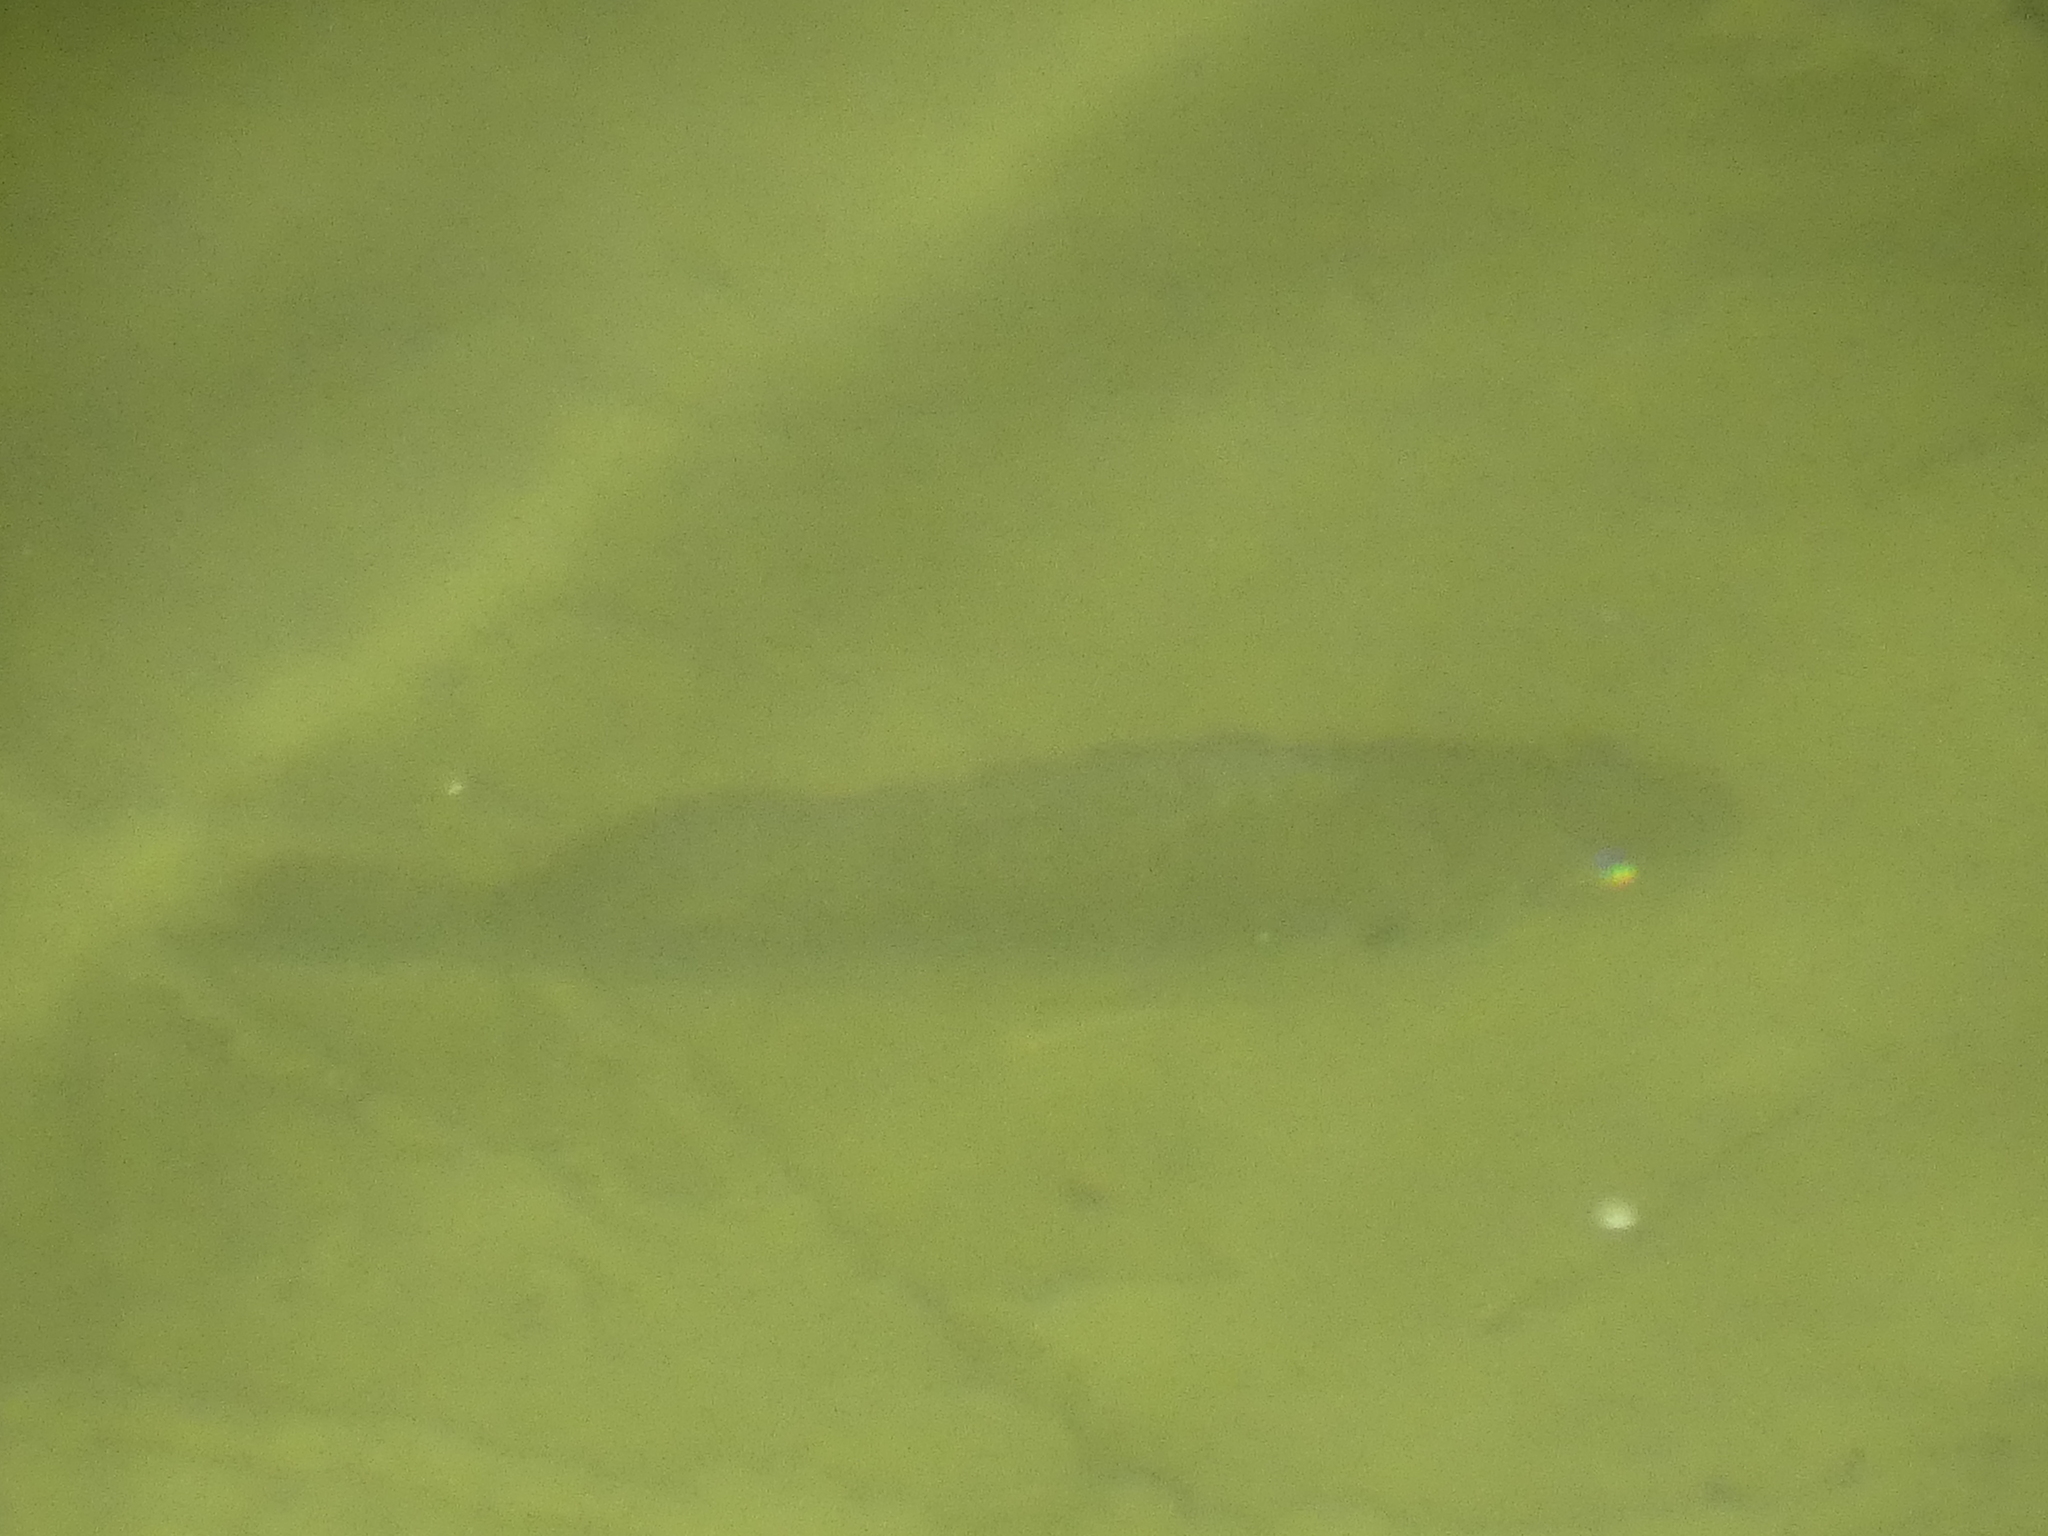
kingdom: Animalia
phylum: Chordata
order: Perciformes
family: Centrarchidae
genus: Lepomis
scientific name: Lepomis gibbosus
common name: Pumpkinseed
